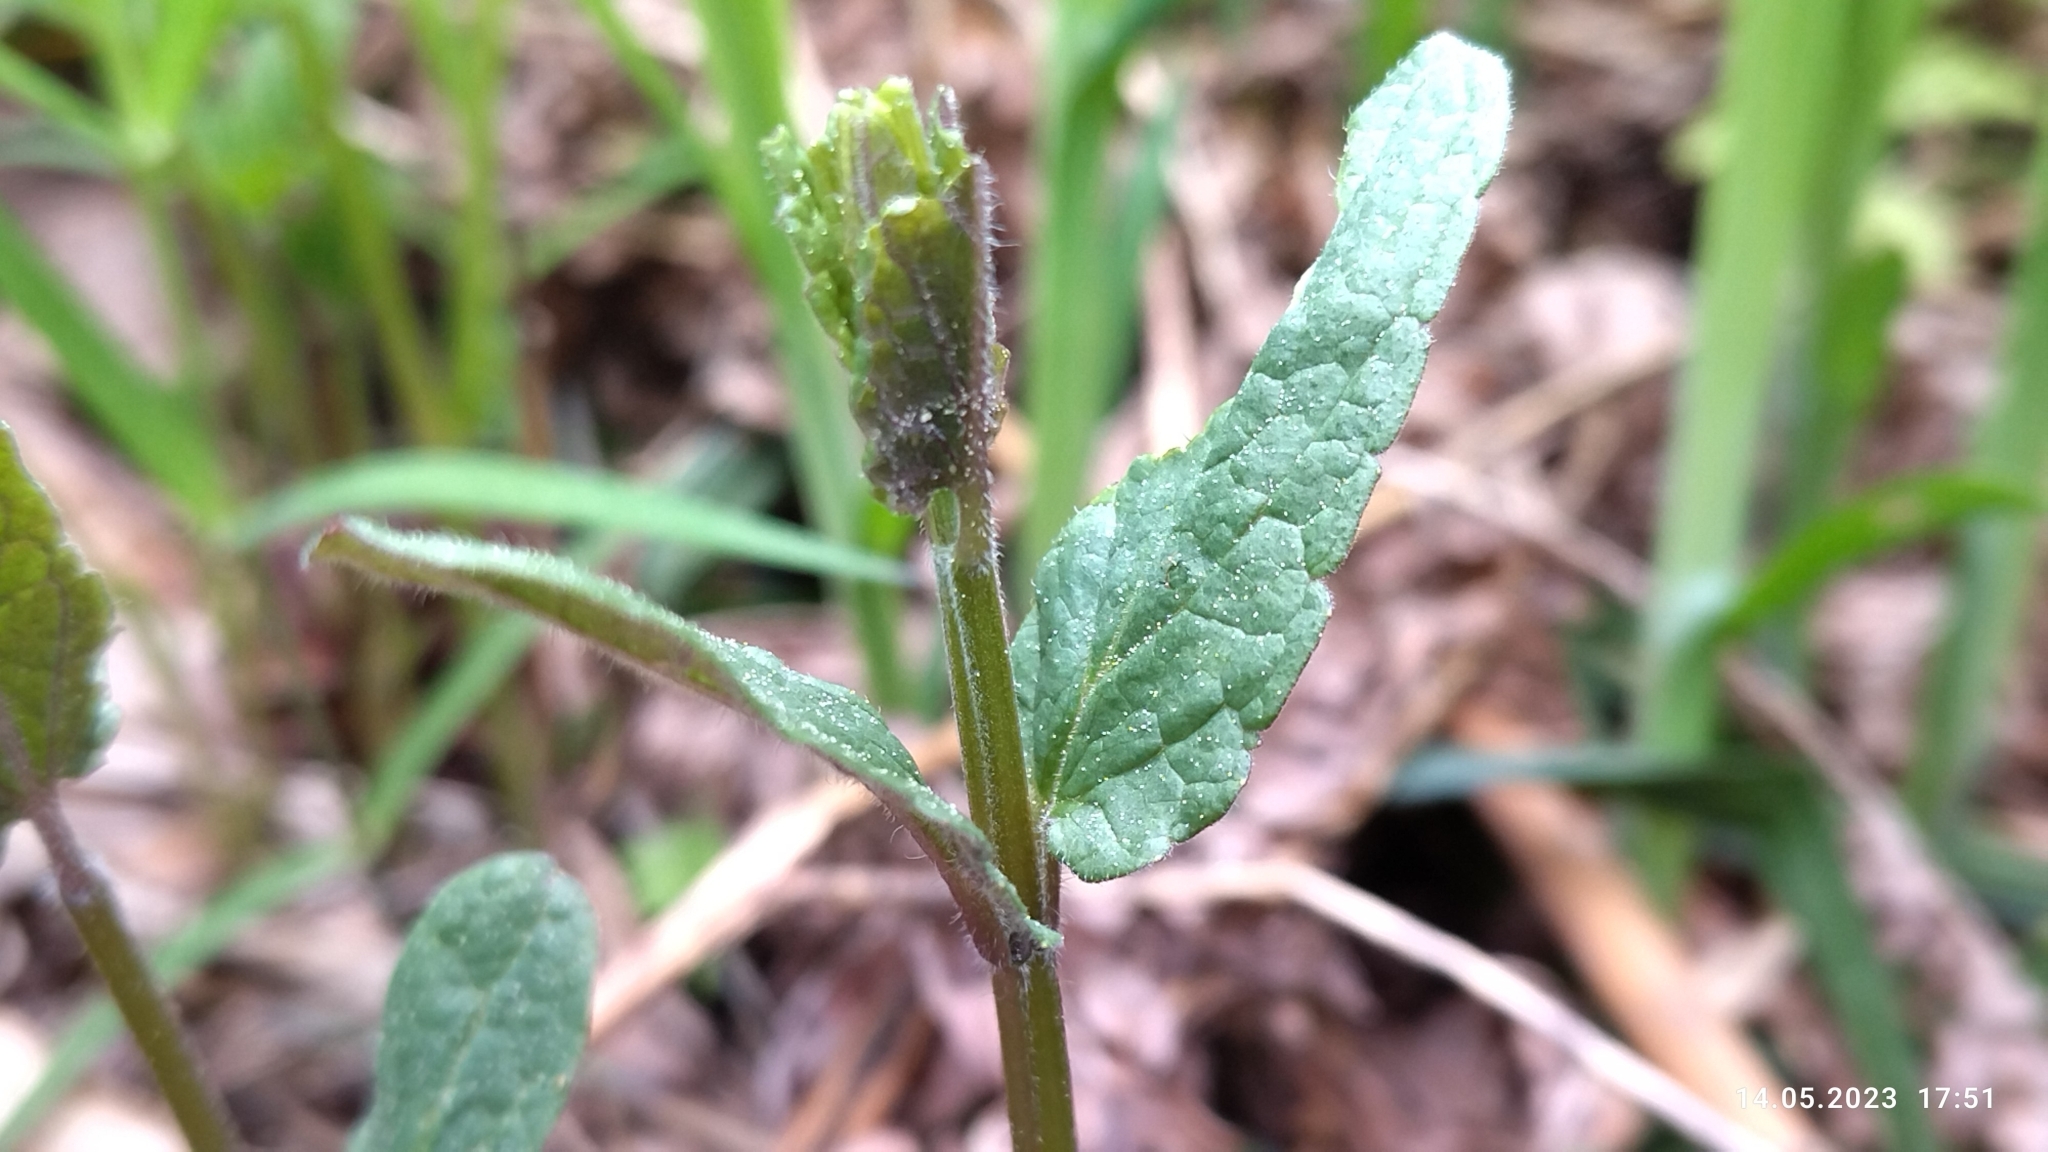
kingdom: Plantae
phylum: Tracheophyta
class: Magnoliopsida
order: Lamiales
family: Lamiaceae
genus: Scutellaria
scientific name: Scutellaria galericulata
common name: Skullcap
